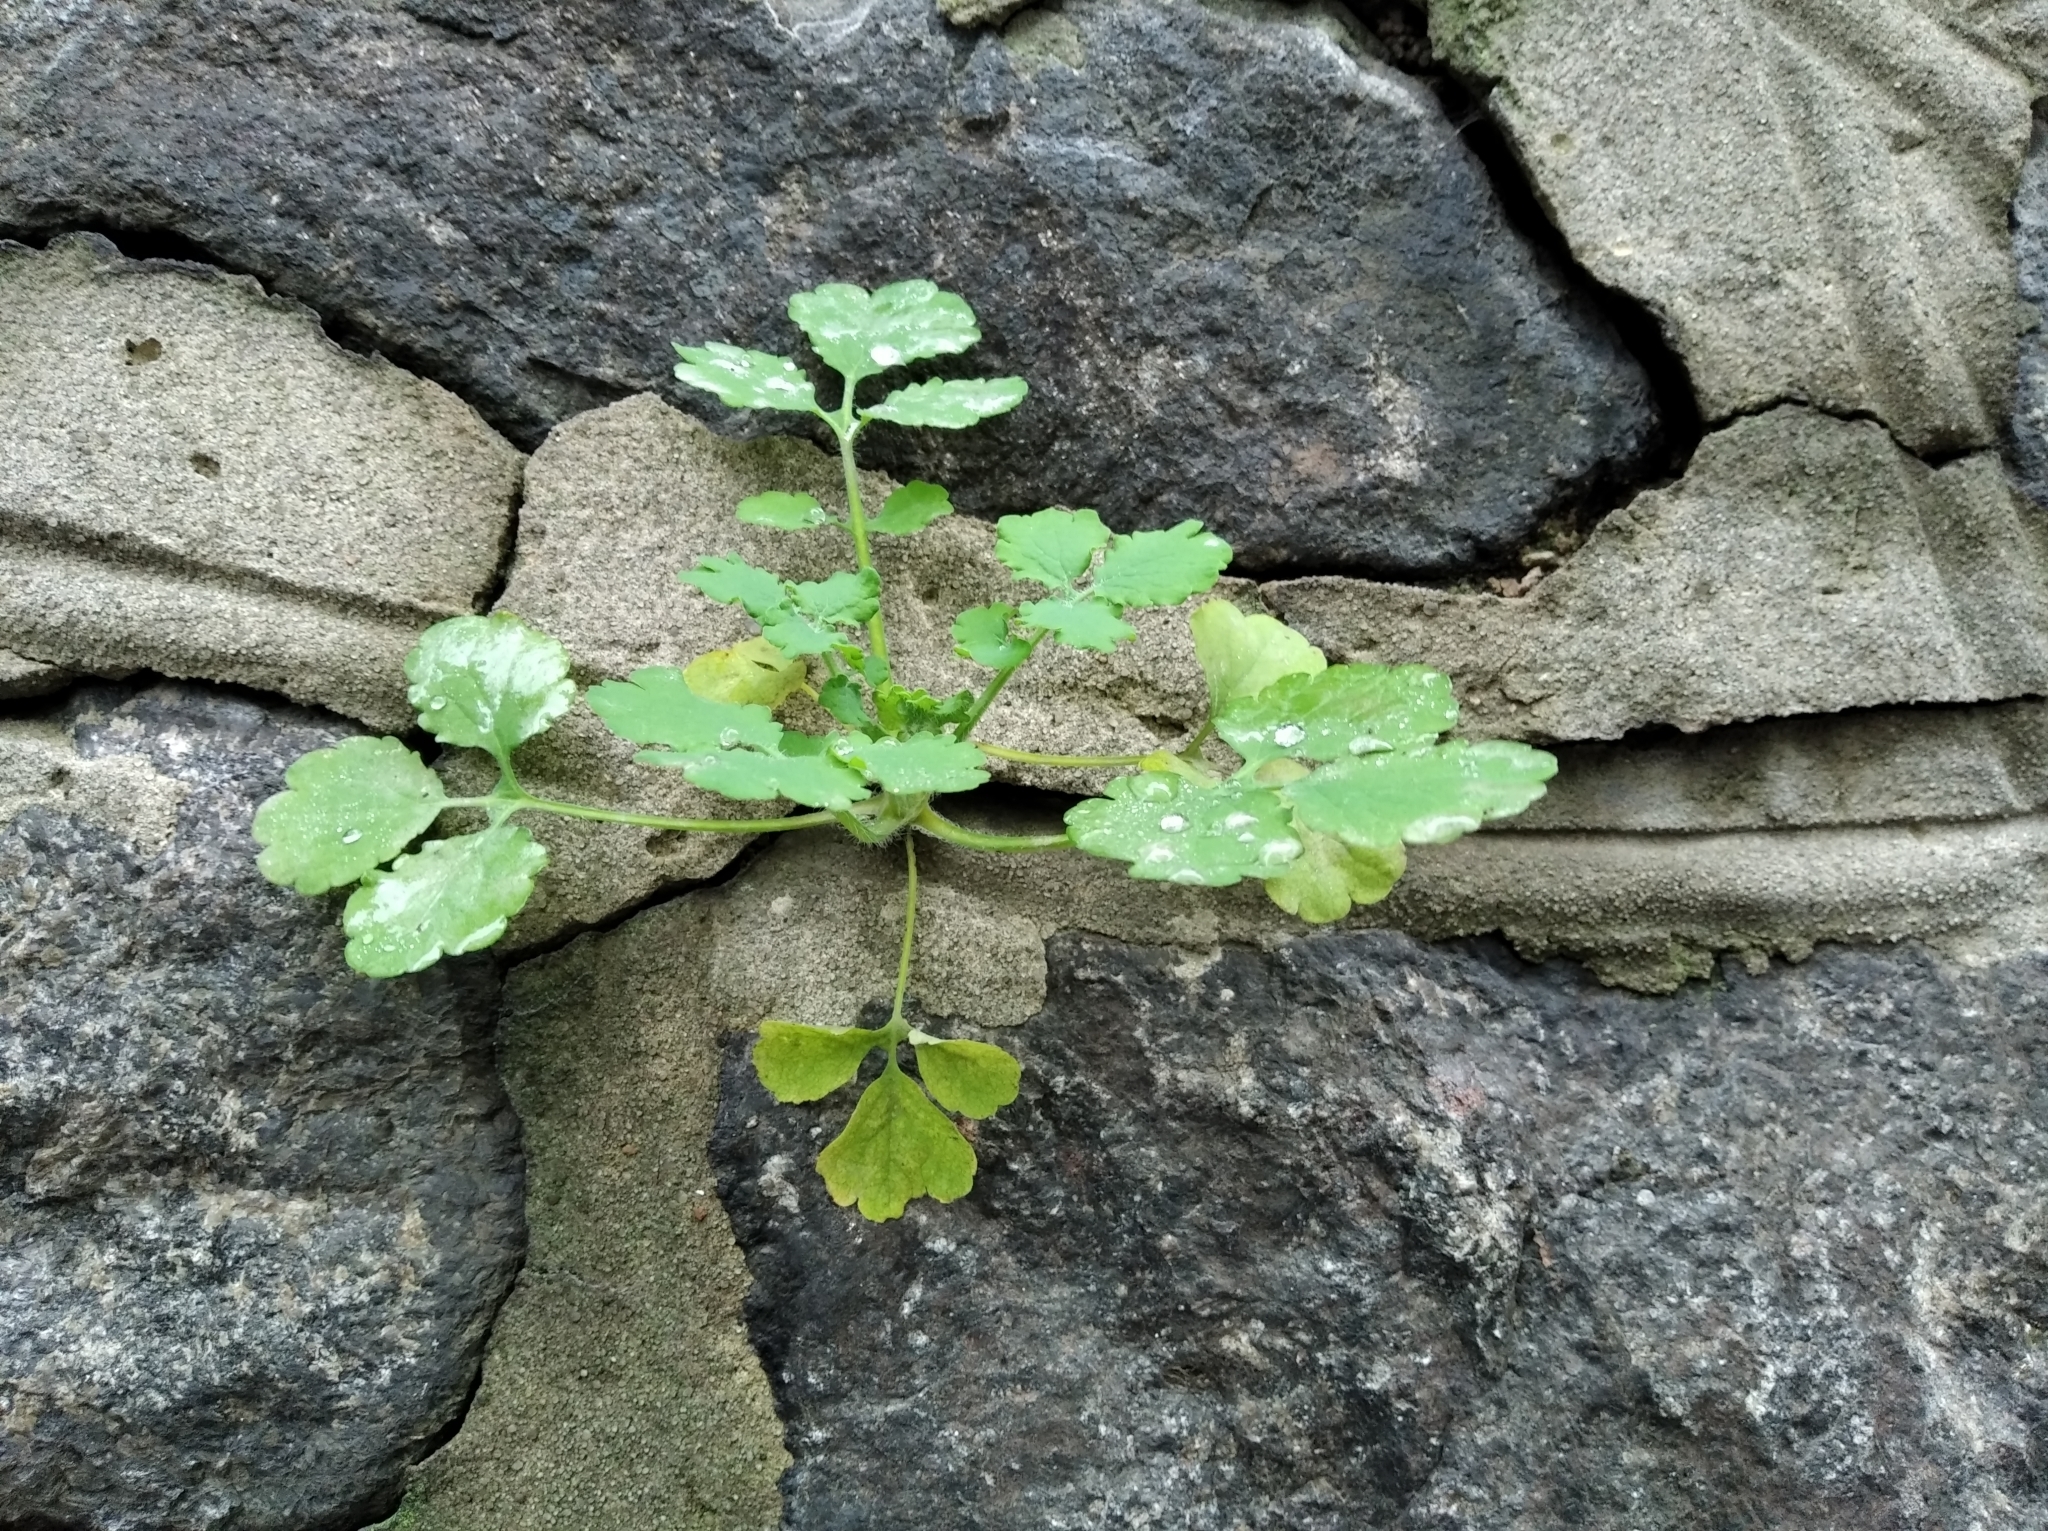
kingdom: Plantae
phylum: Tracheophyta
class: Magnoliopsida
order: Ranunculales
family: Papaveraceae
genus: Chelidonium
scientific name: Chelidonium majus
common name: Greater celandine
